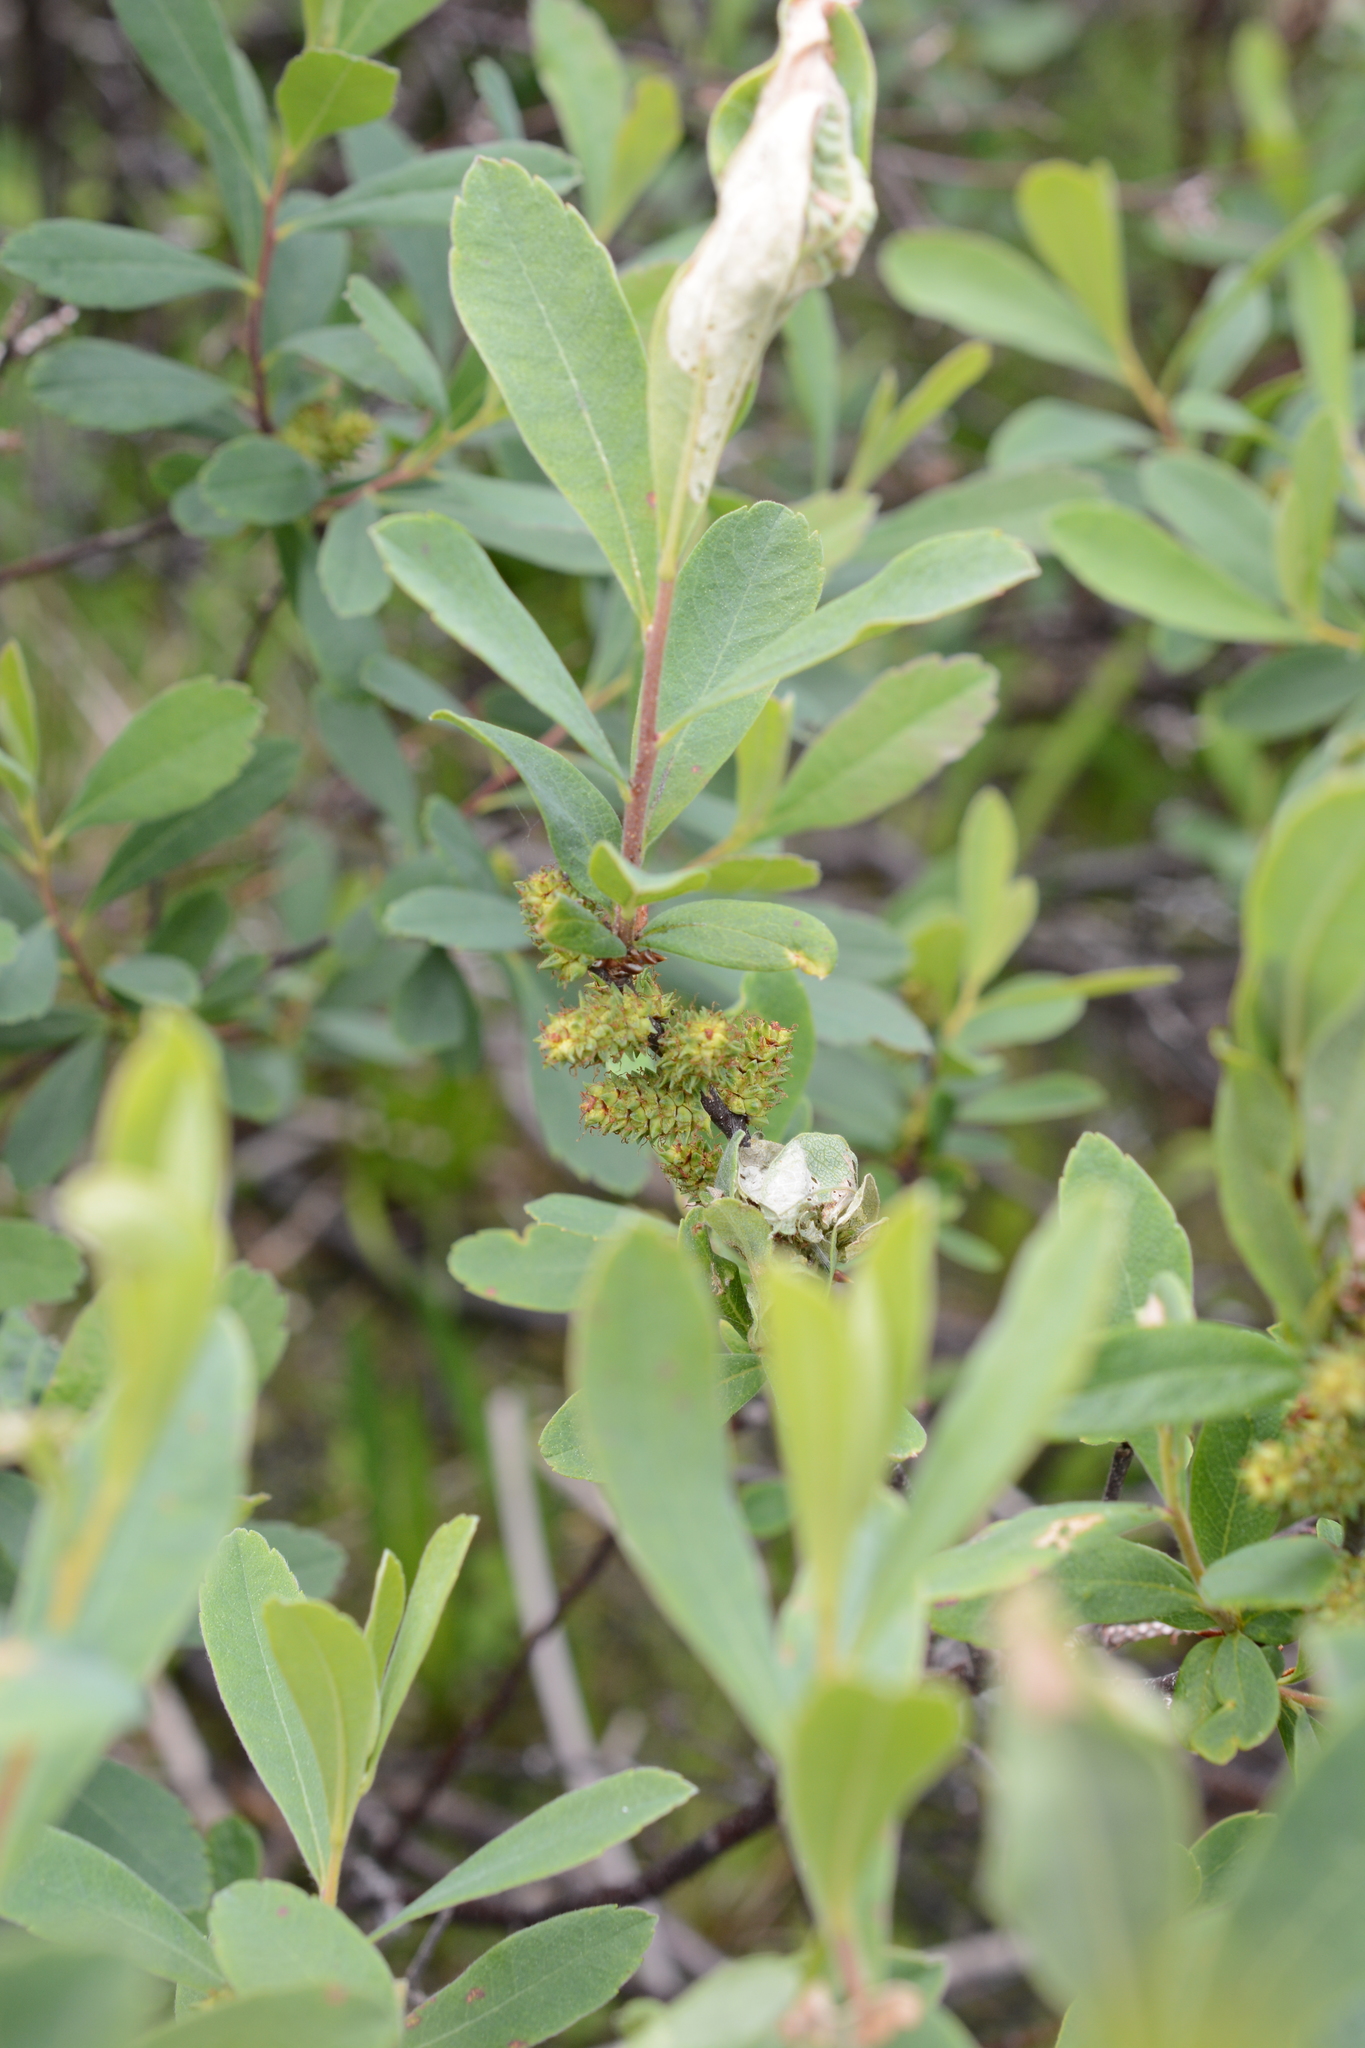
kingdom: Plantae
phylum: Tracheophyta
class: Magnoliopsida
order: Fagales
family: Myricaceae
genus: Myrica
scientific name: Myrica gale
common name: Sweet gale
